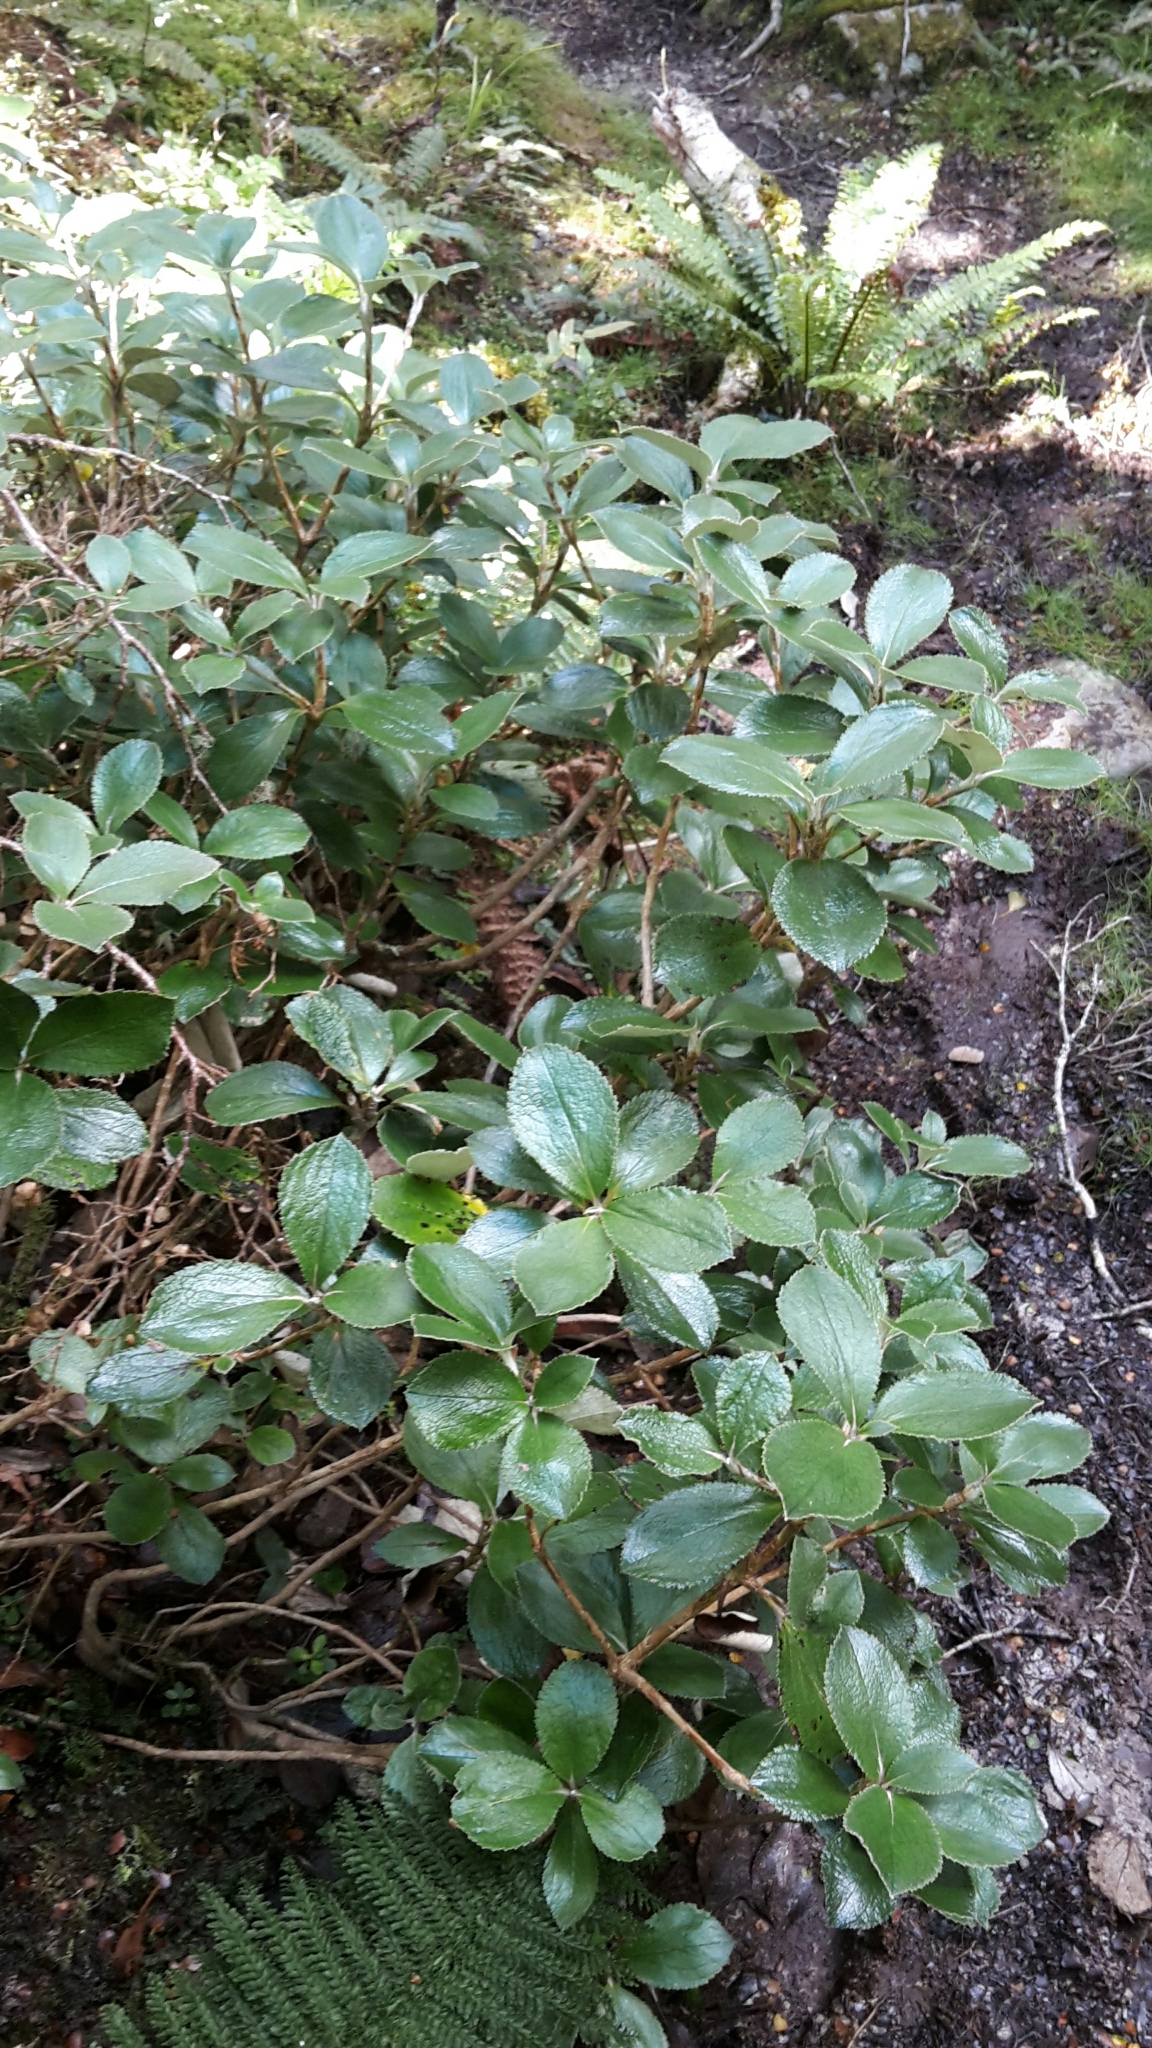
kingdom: Plantae
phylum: Tracheophyta
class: Magnoliopsida
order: Asterales
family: Asteraceae
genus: Macrolearia
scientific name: Macrolearia colensoi
